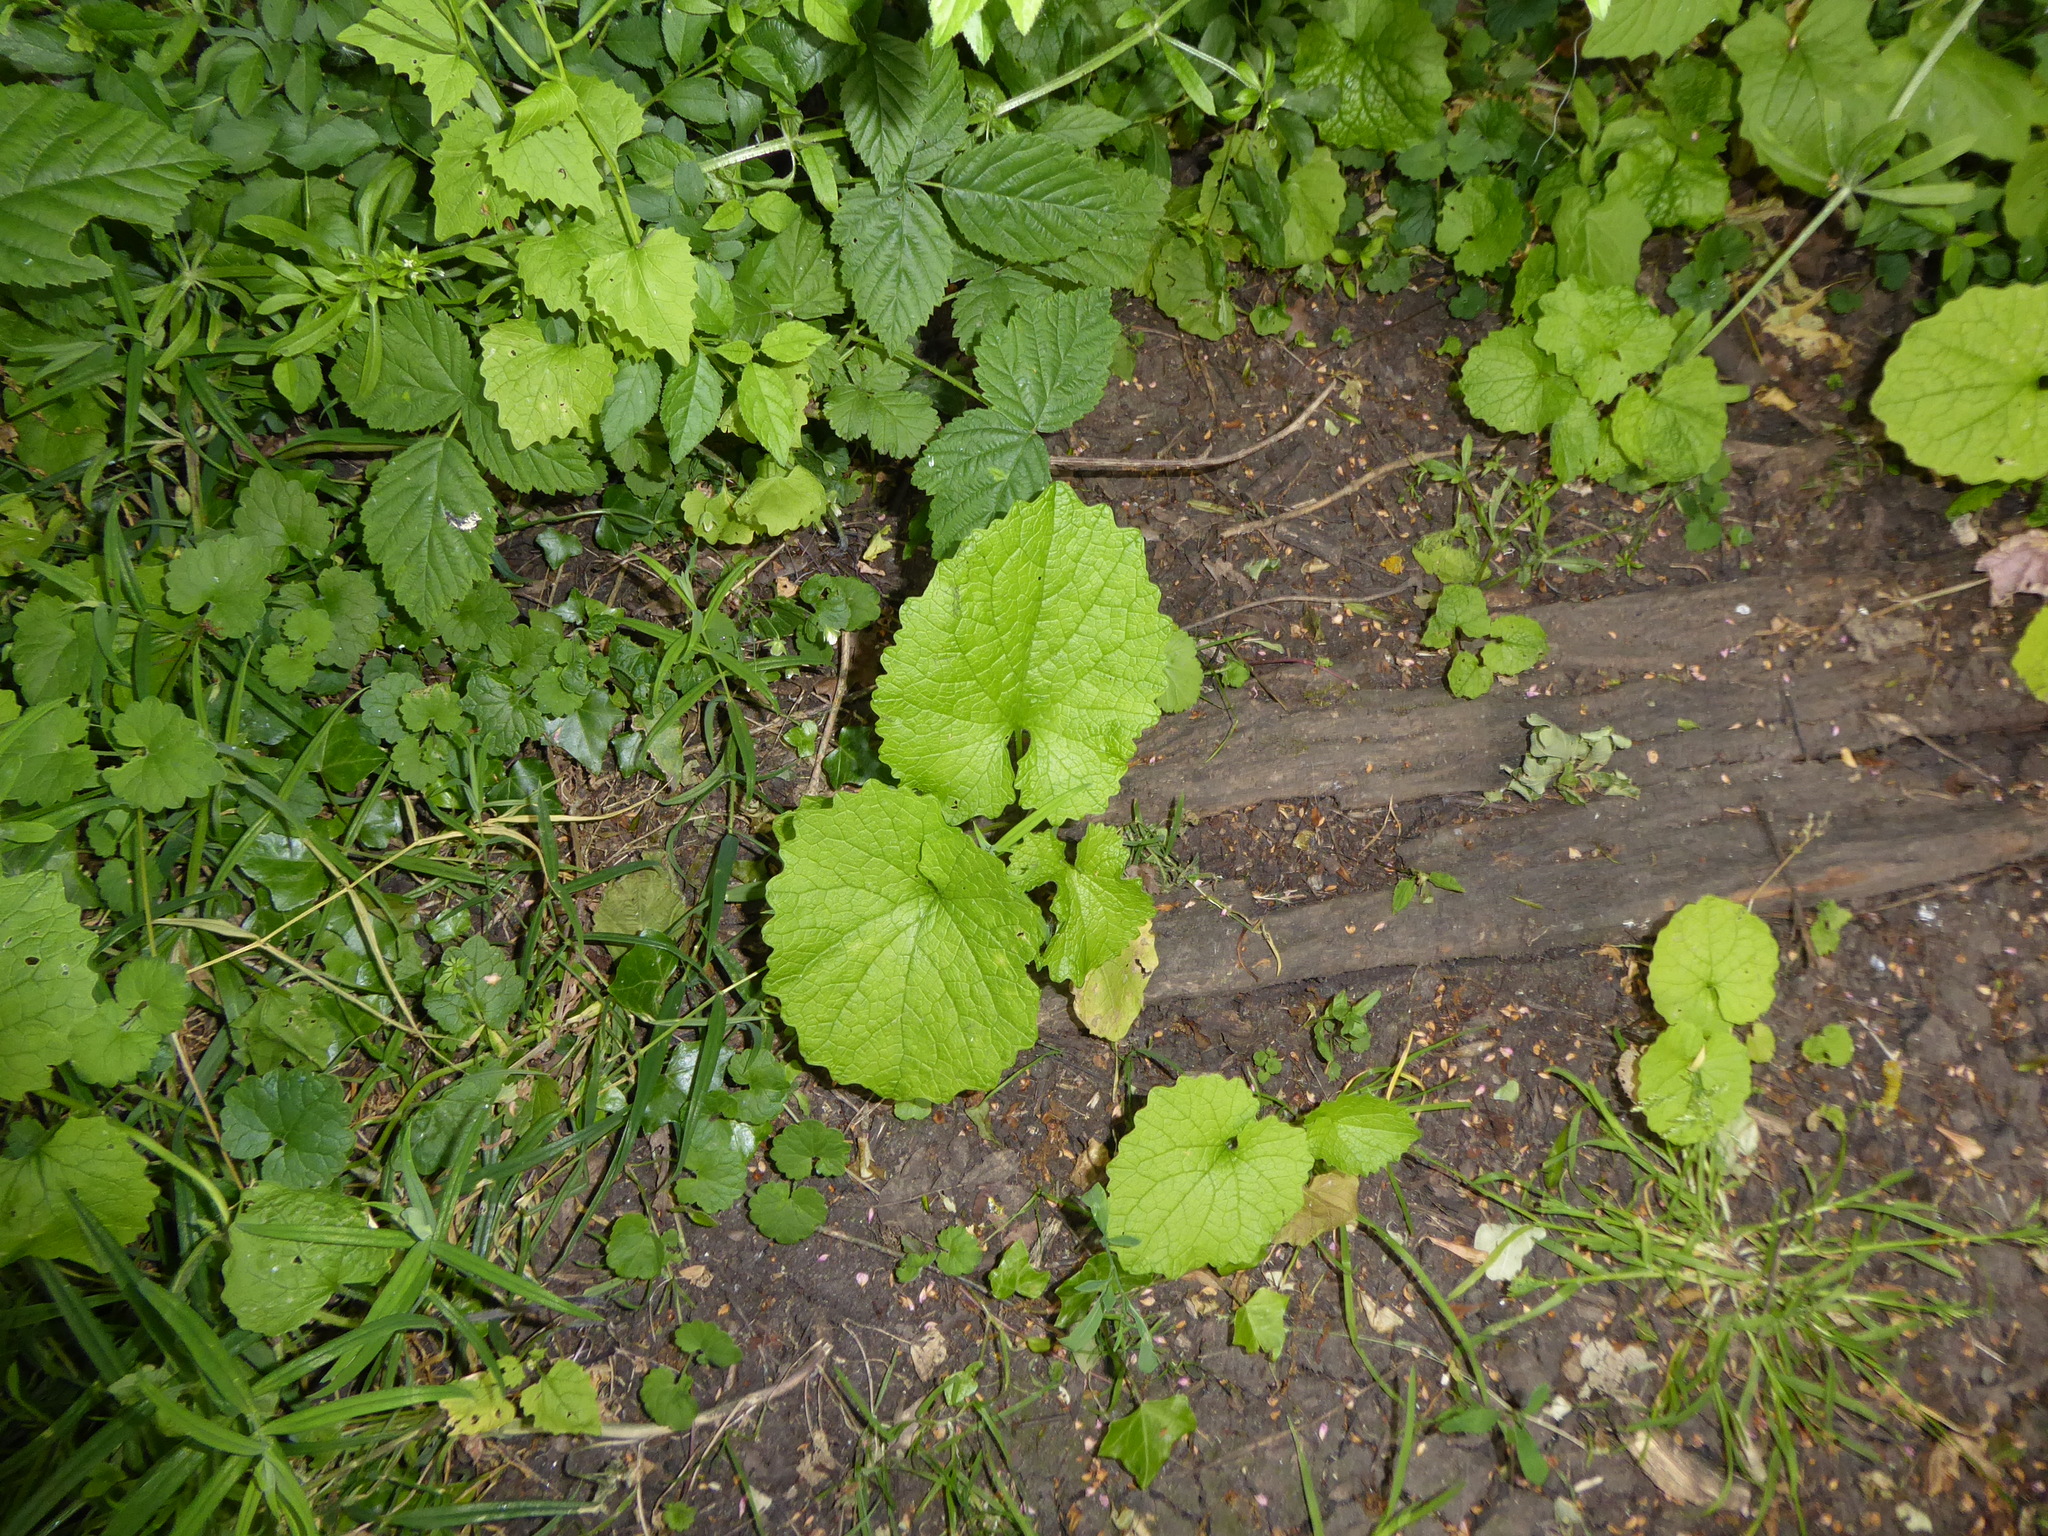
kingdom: Plantae
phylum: Tracheophyta
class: Magnoliopsida
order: Brassicales
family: Brassicaceae
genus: Alliaria
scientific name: Alliaria petiolata
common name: Garlic mustard
